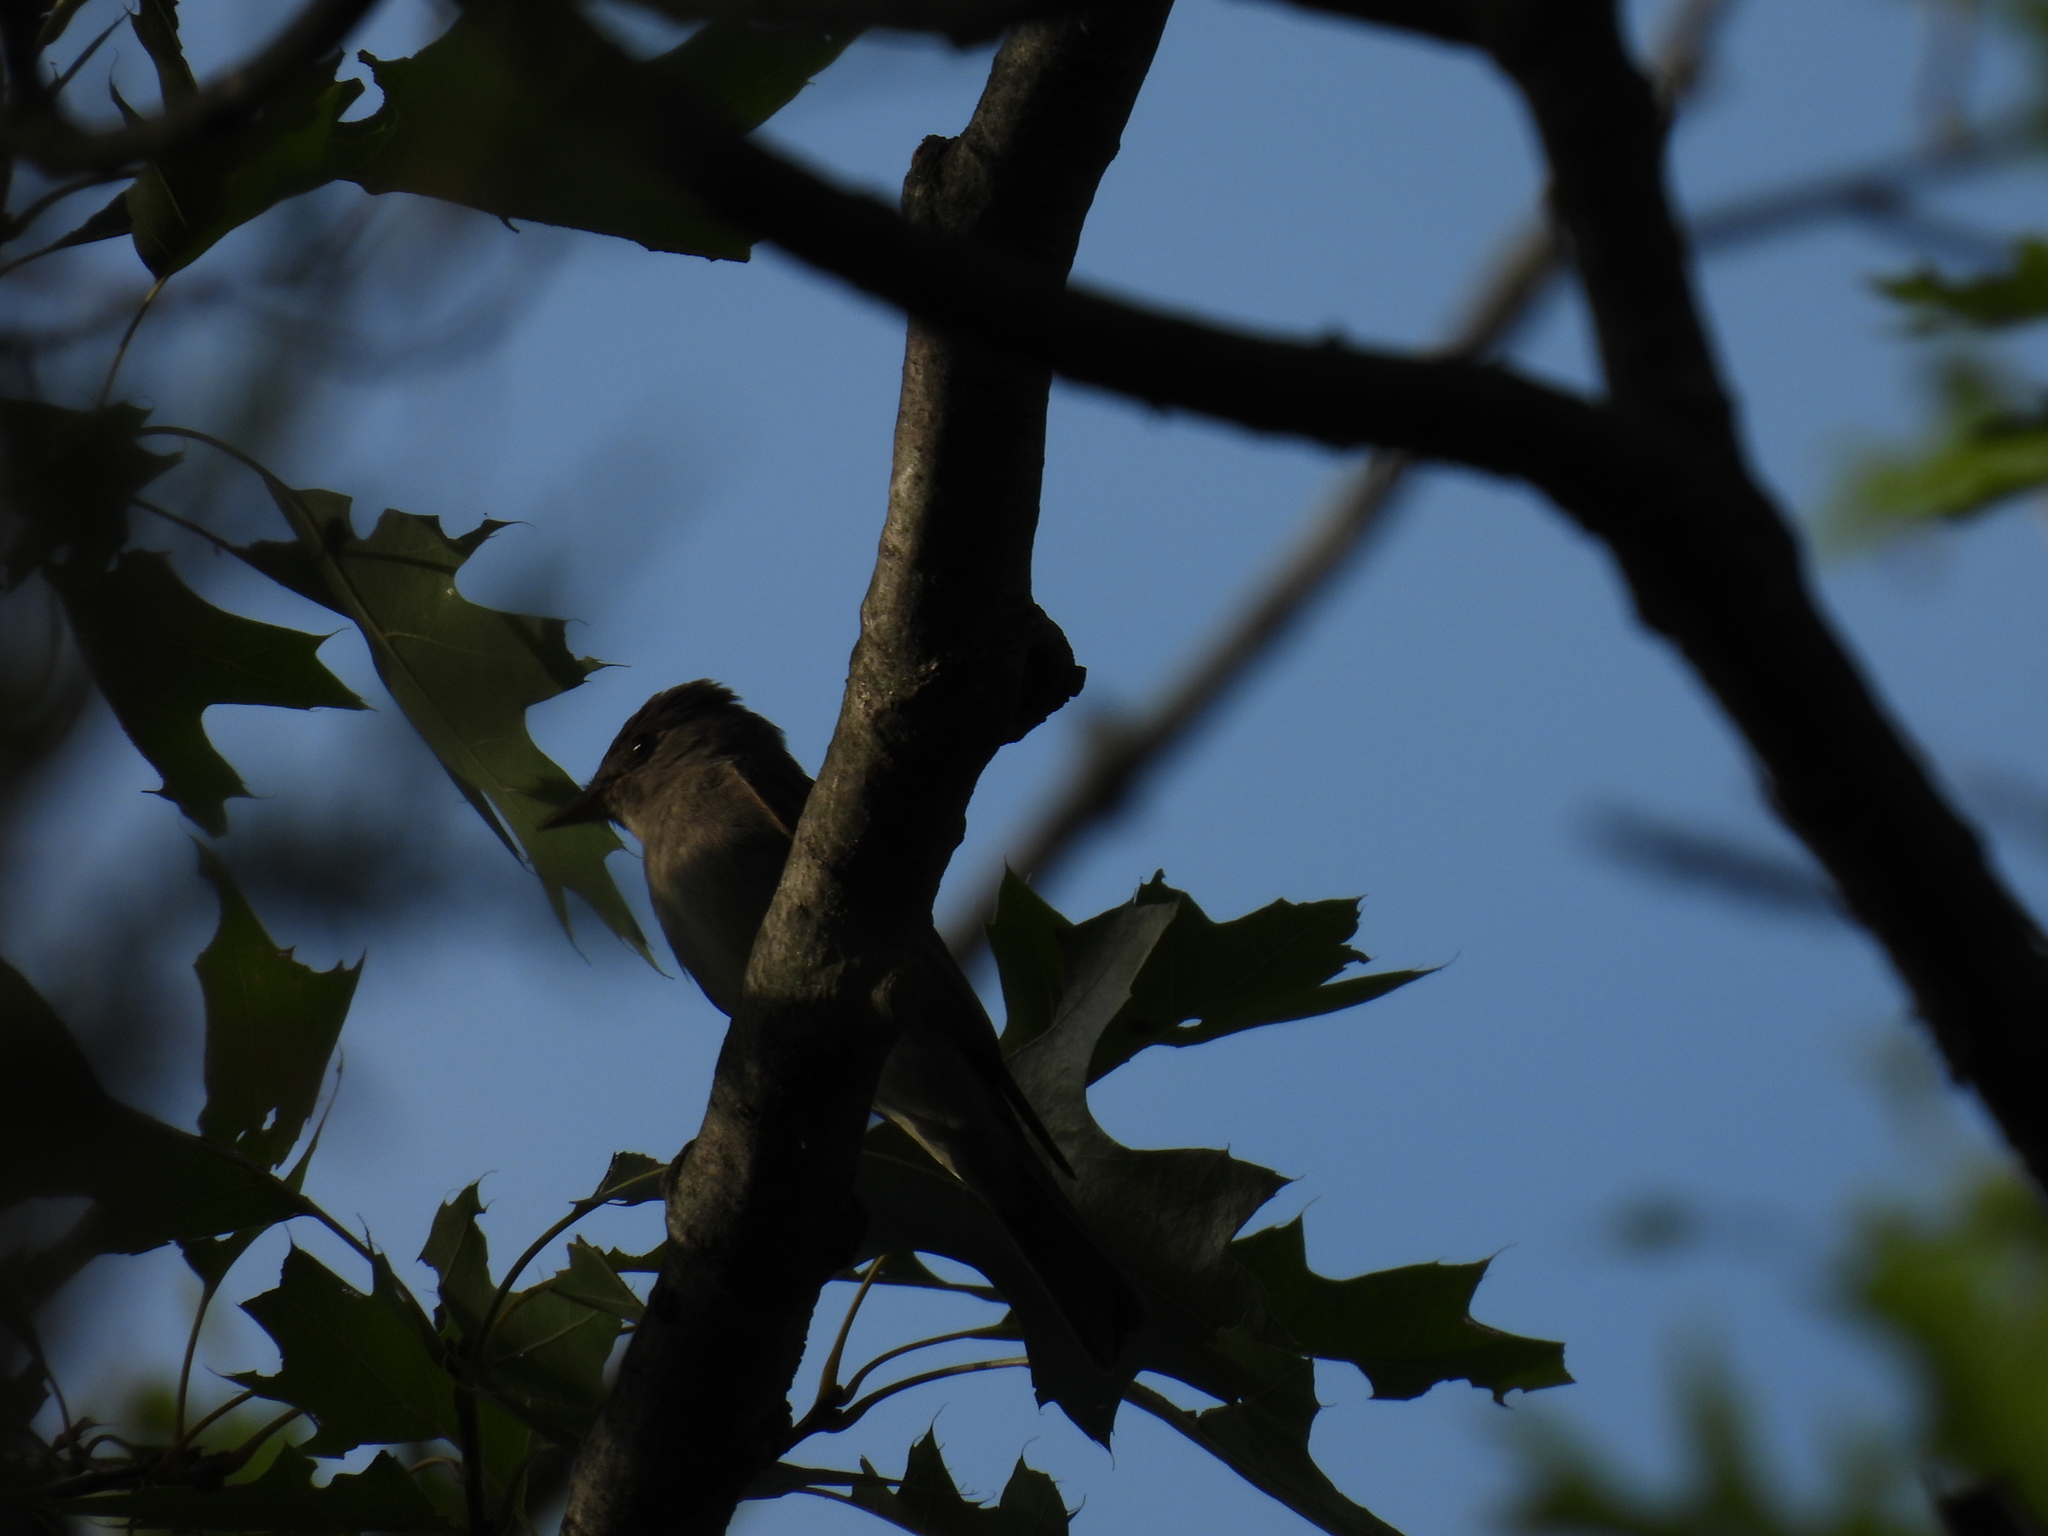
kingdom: Animalia
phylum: Chordata
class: Aves
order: Passeriformes
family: Tyrannidae
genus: Contopus
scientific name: Contopus virens
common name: Eastern wood-pewee
